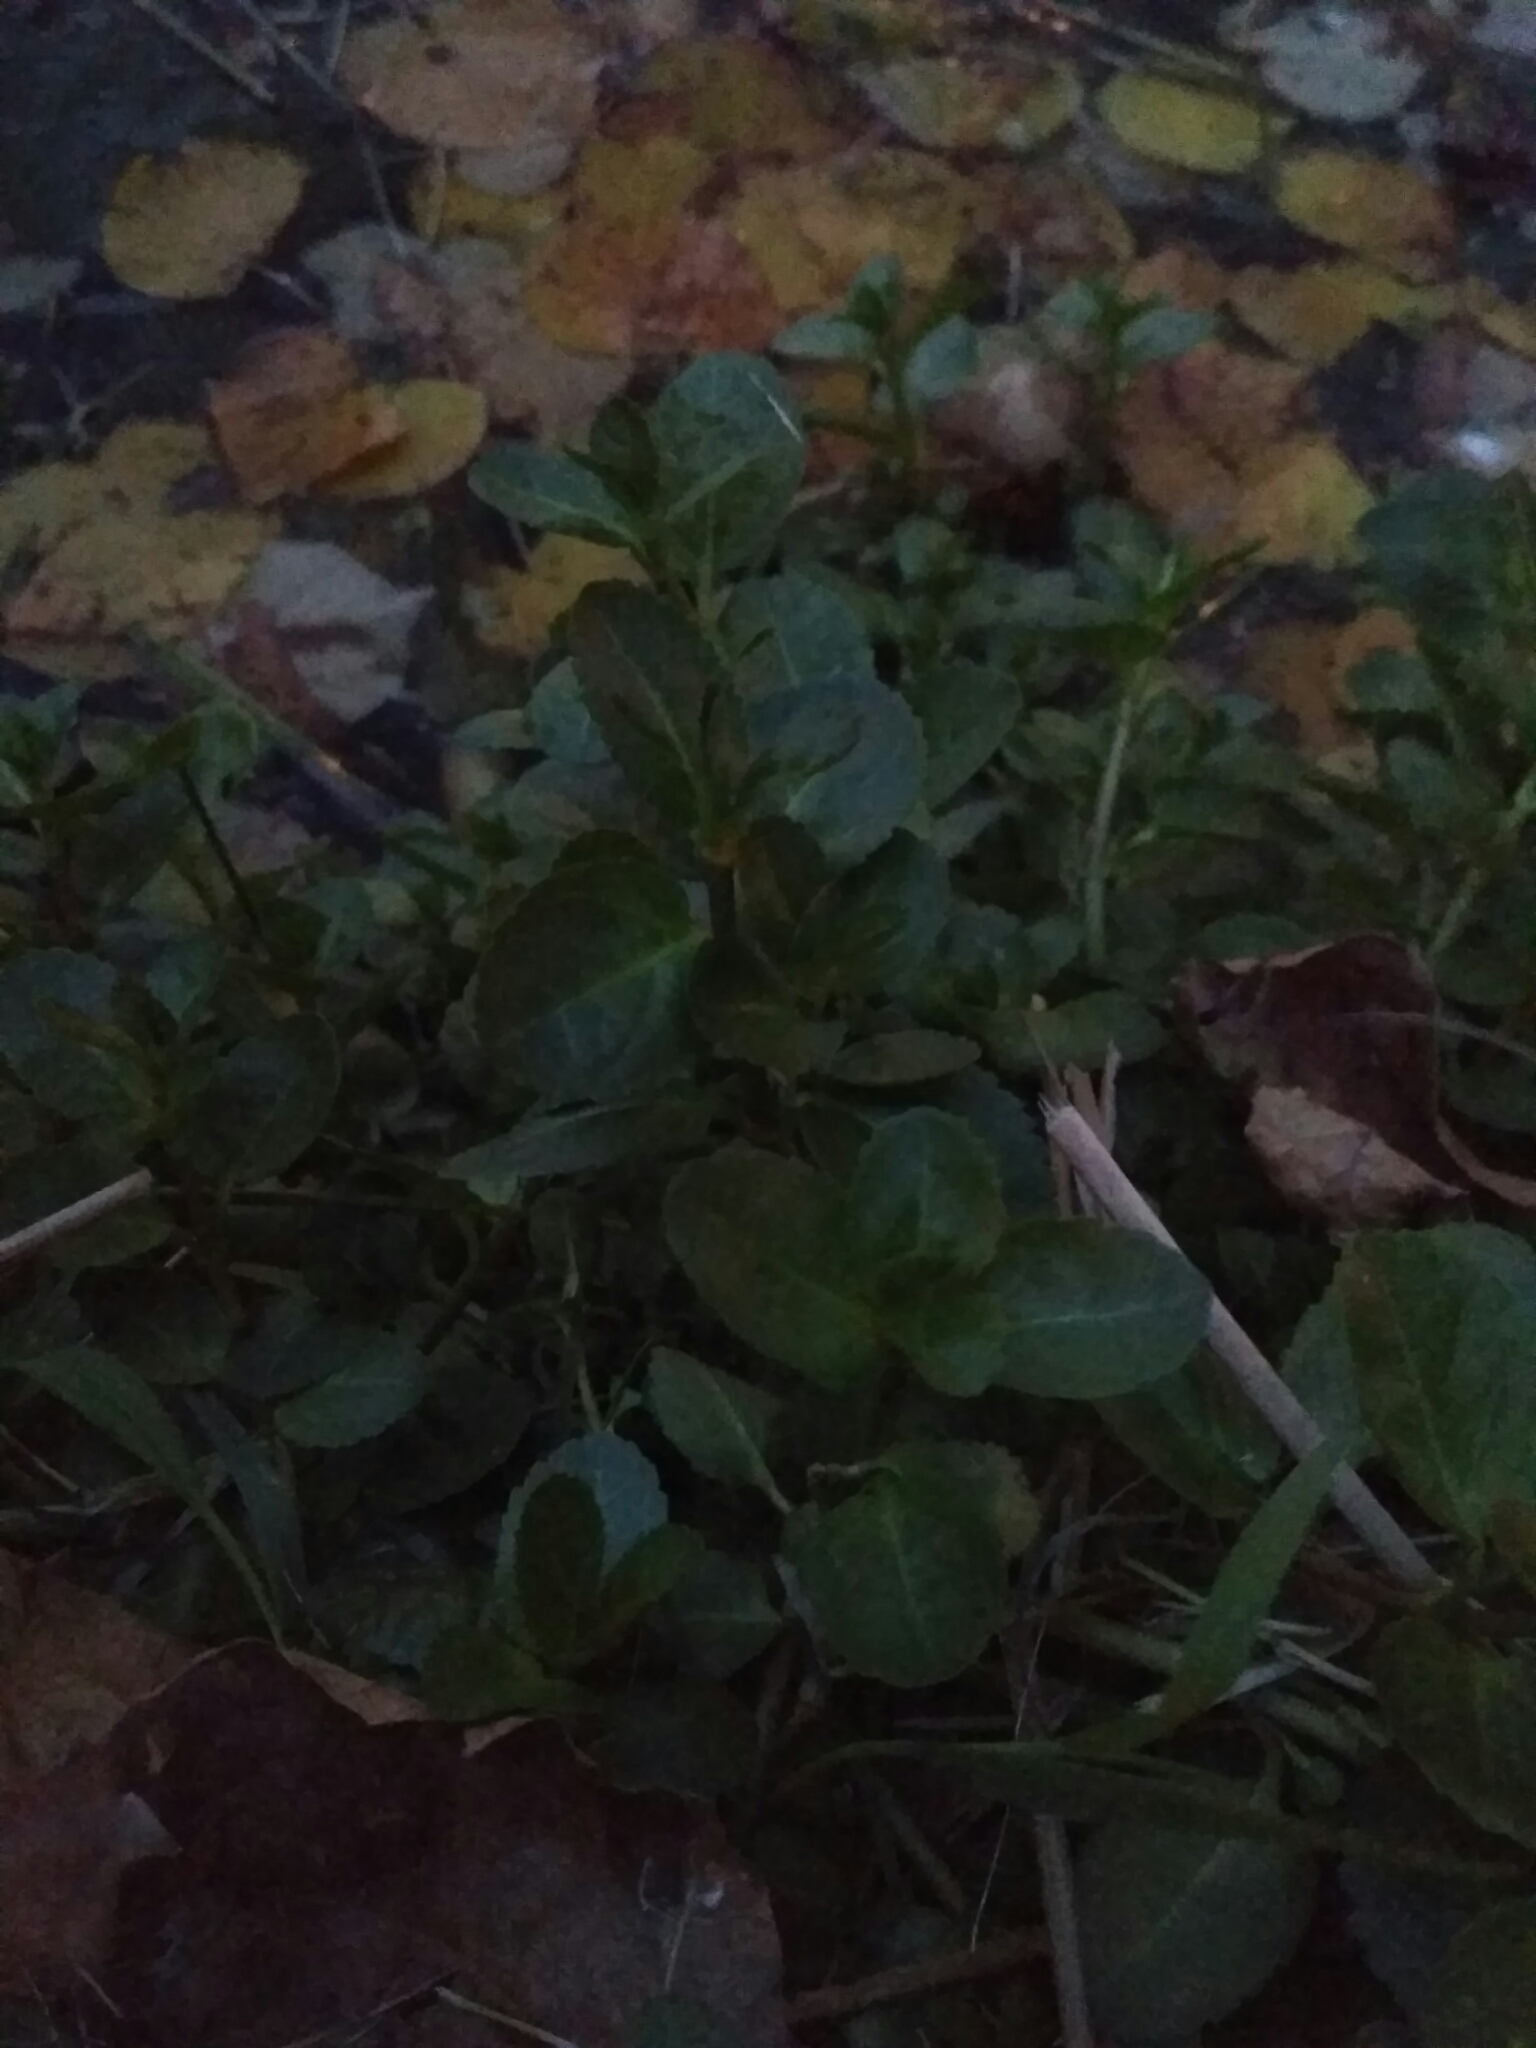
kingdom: Plantae
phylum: Tracheophyta
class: Magnoliopsida
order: Lamiales
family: Plantaginaceae
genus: Veronica
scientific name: Veronica beccabunga
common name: Brooklime
